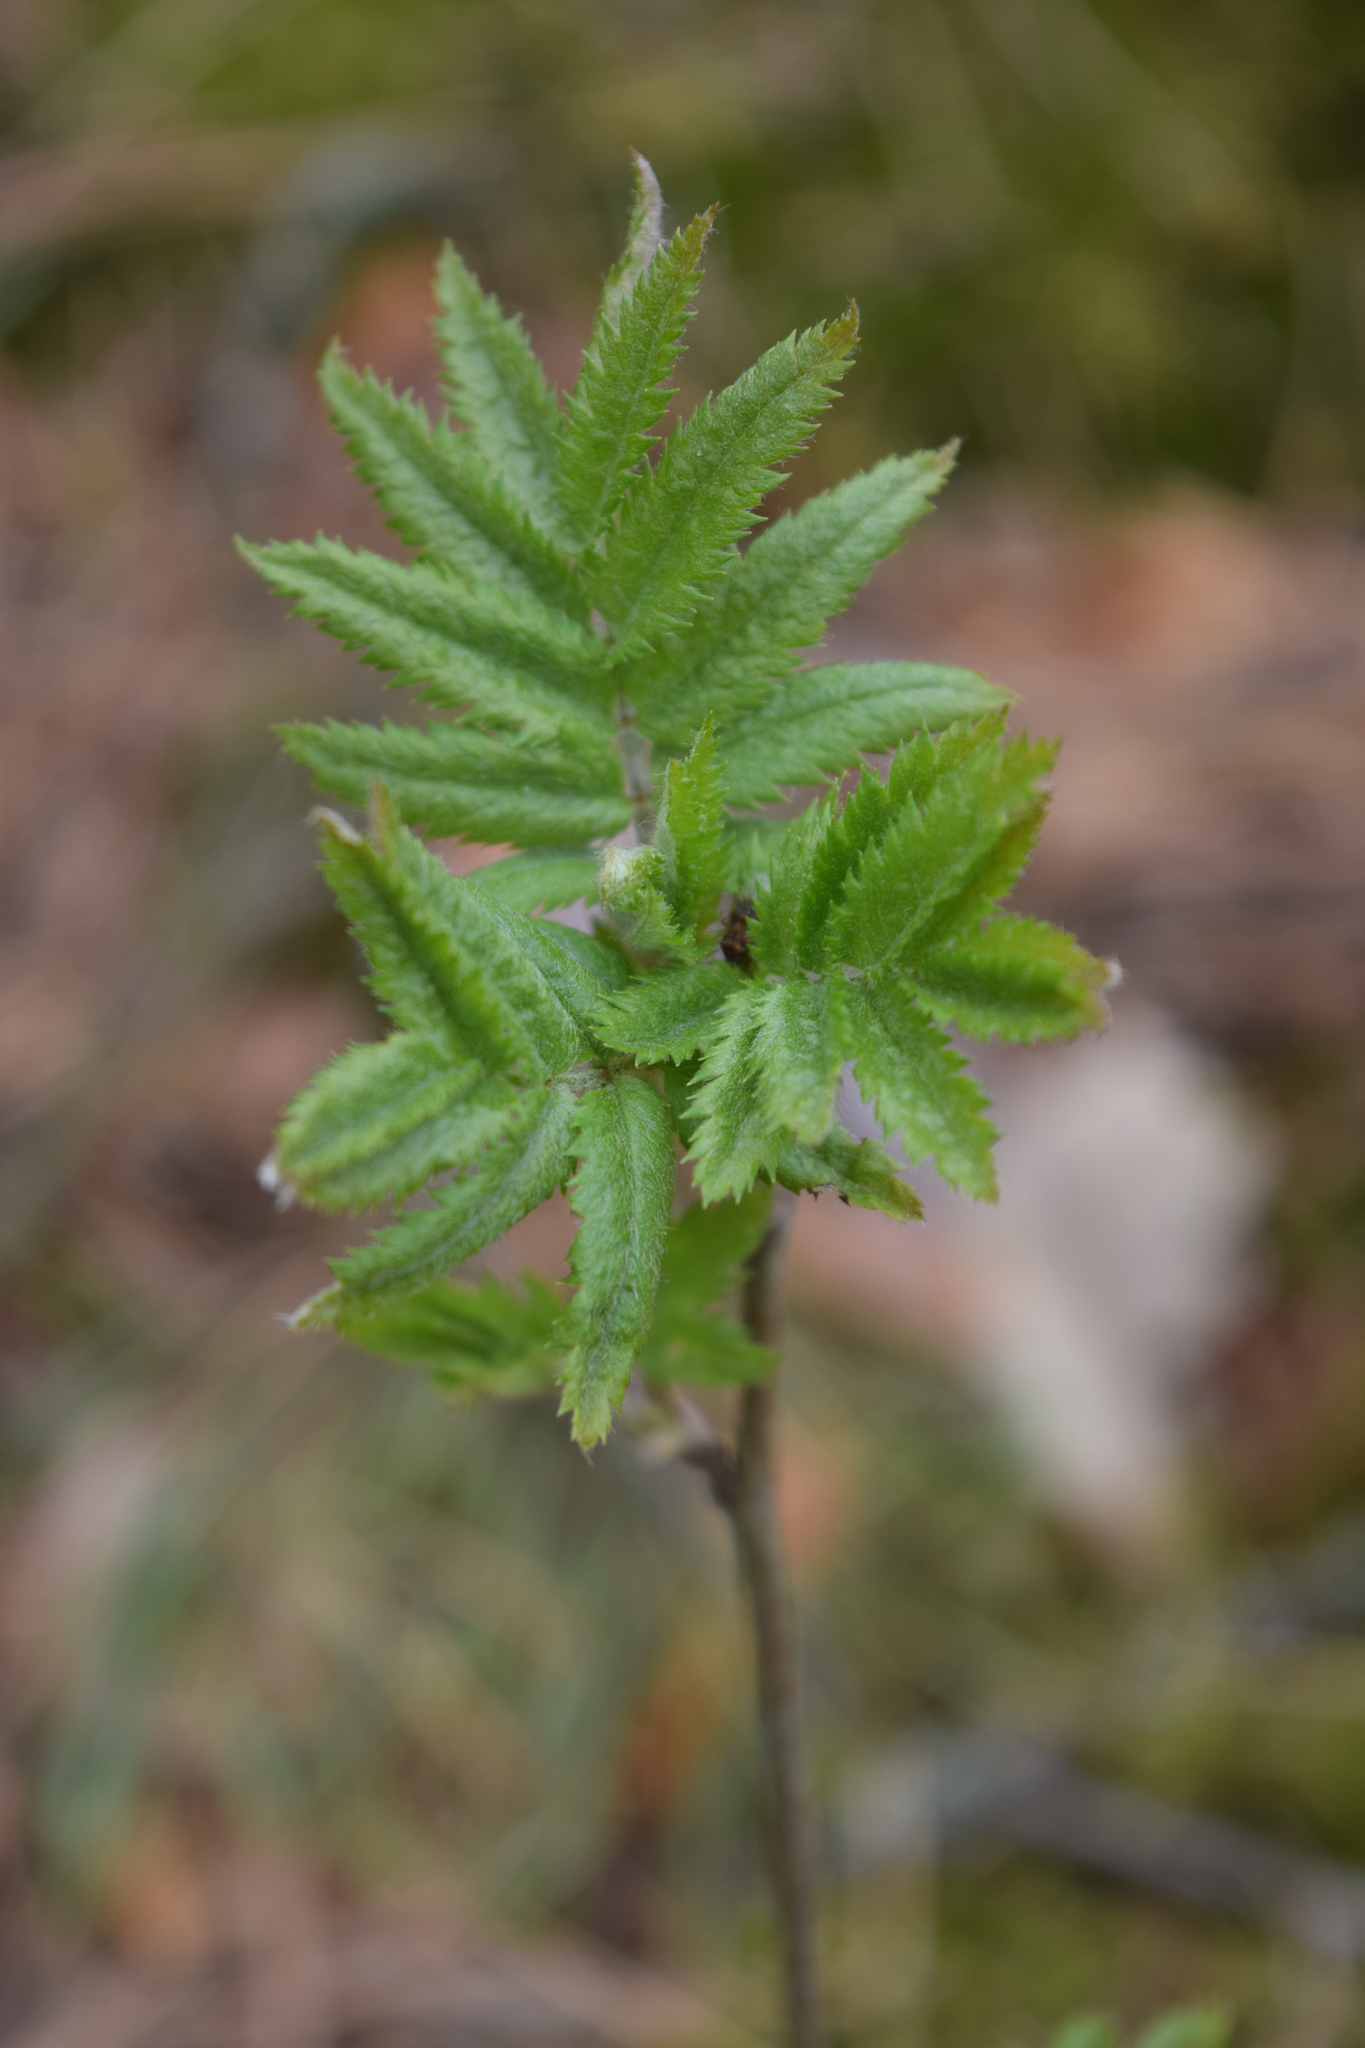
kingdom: Plantae
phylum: Tracheophyta
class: Magnoliopsida
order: Rosales
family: Rosaceae
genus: Sorbus
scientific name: Sorbus aucuparia
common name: Rowan
